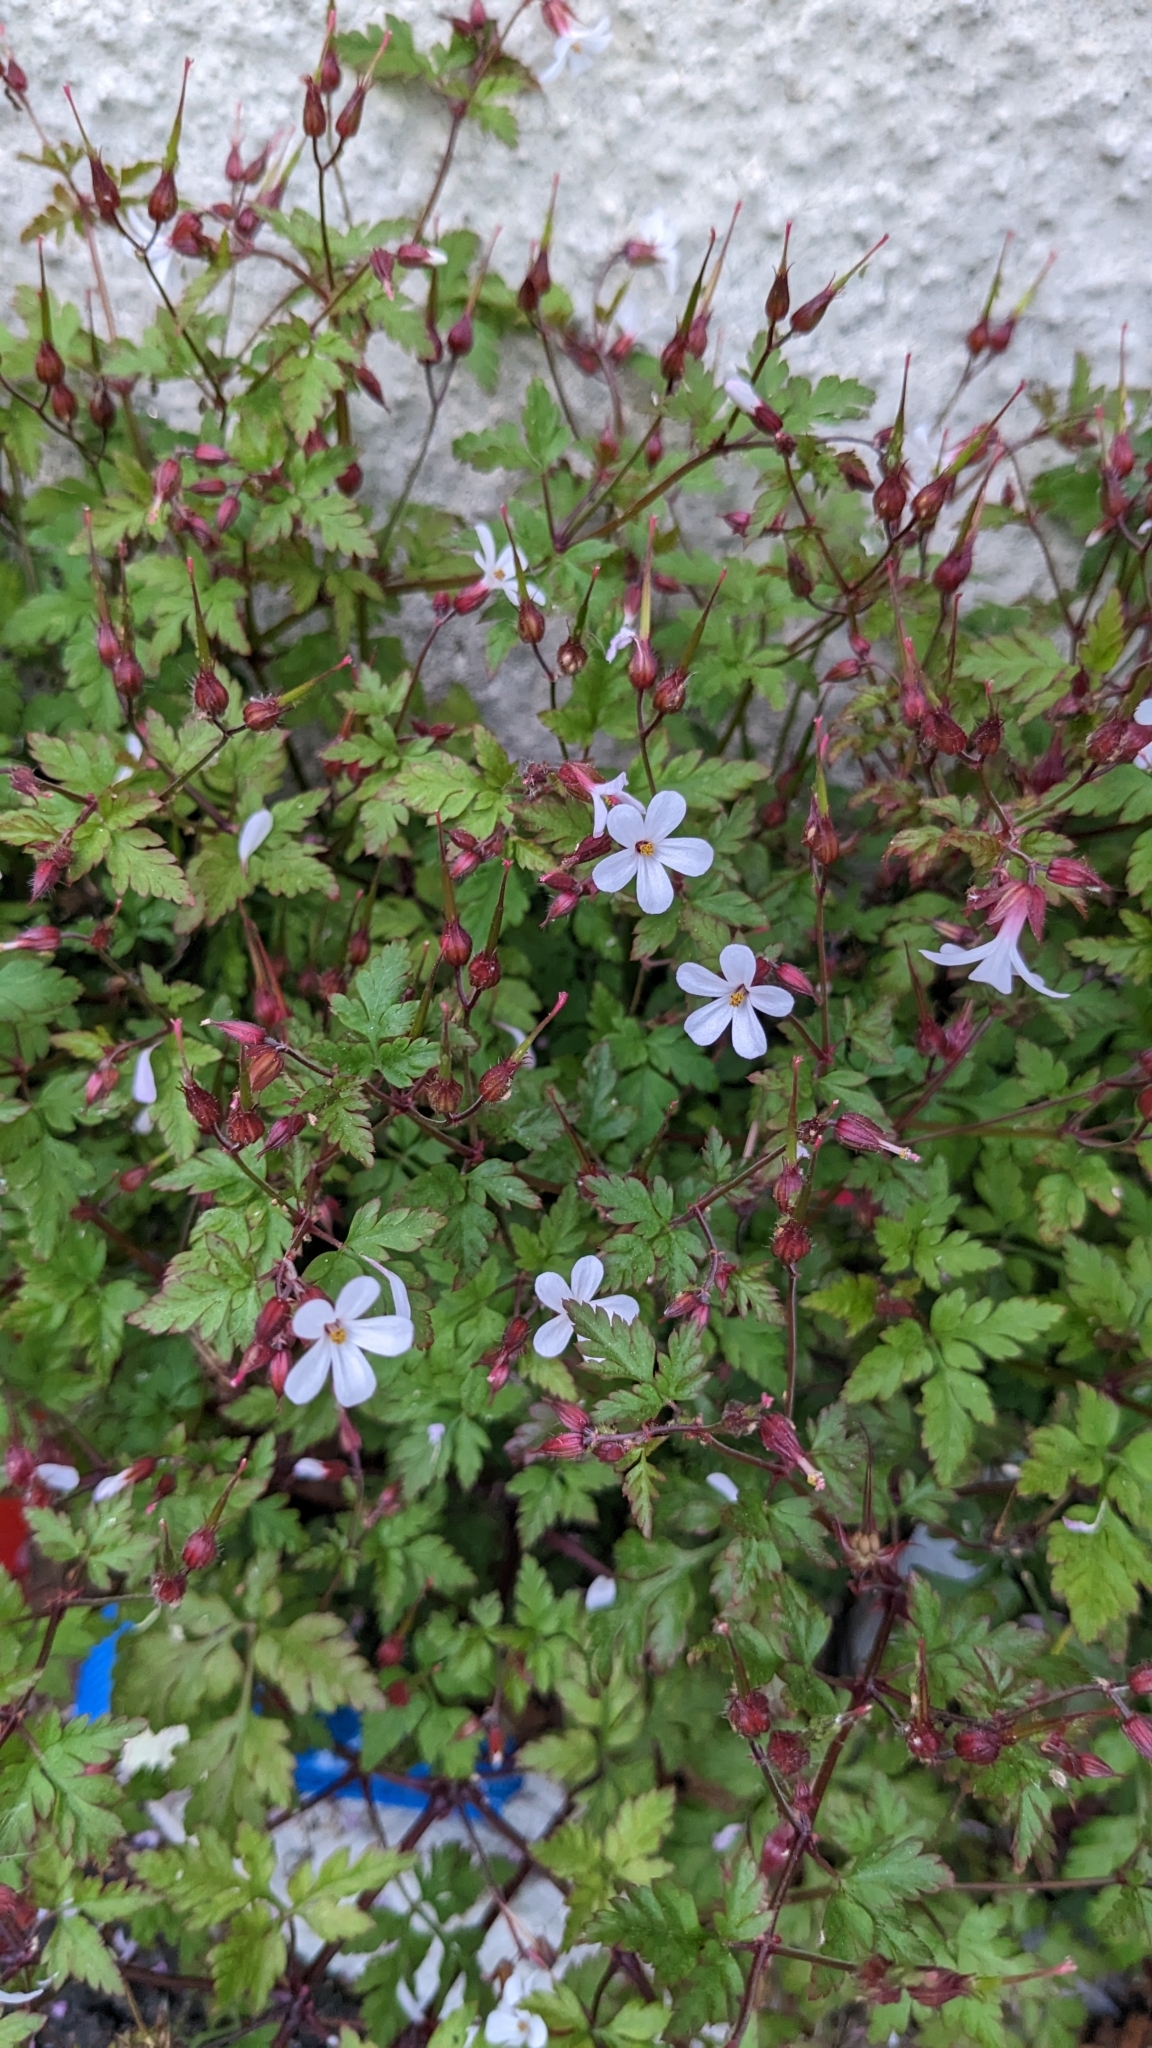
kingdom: Plantae
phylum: Tracheophyta
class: Magnoliopsida
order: Geraniales
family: Geraniaceae
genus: Geranium
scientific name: Geranium robertianum
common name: Herb-robert
